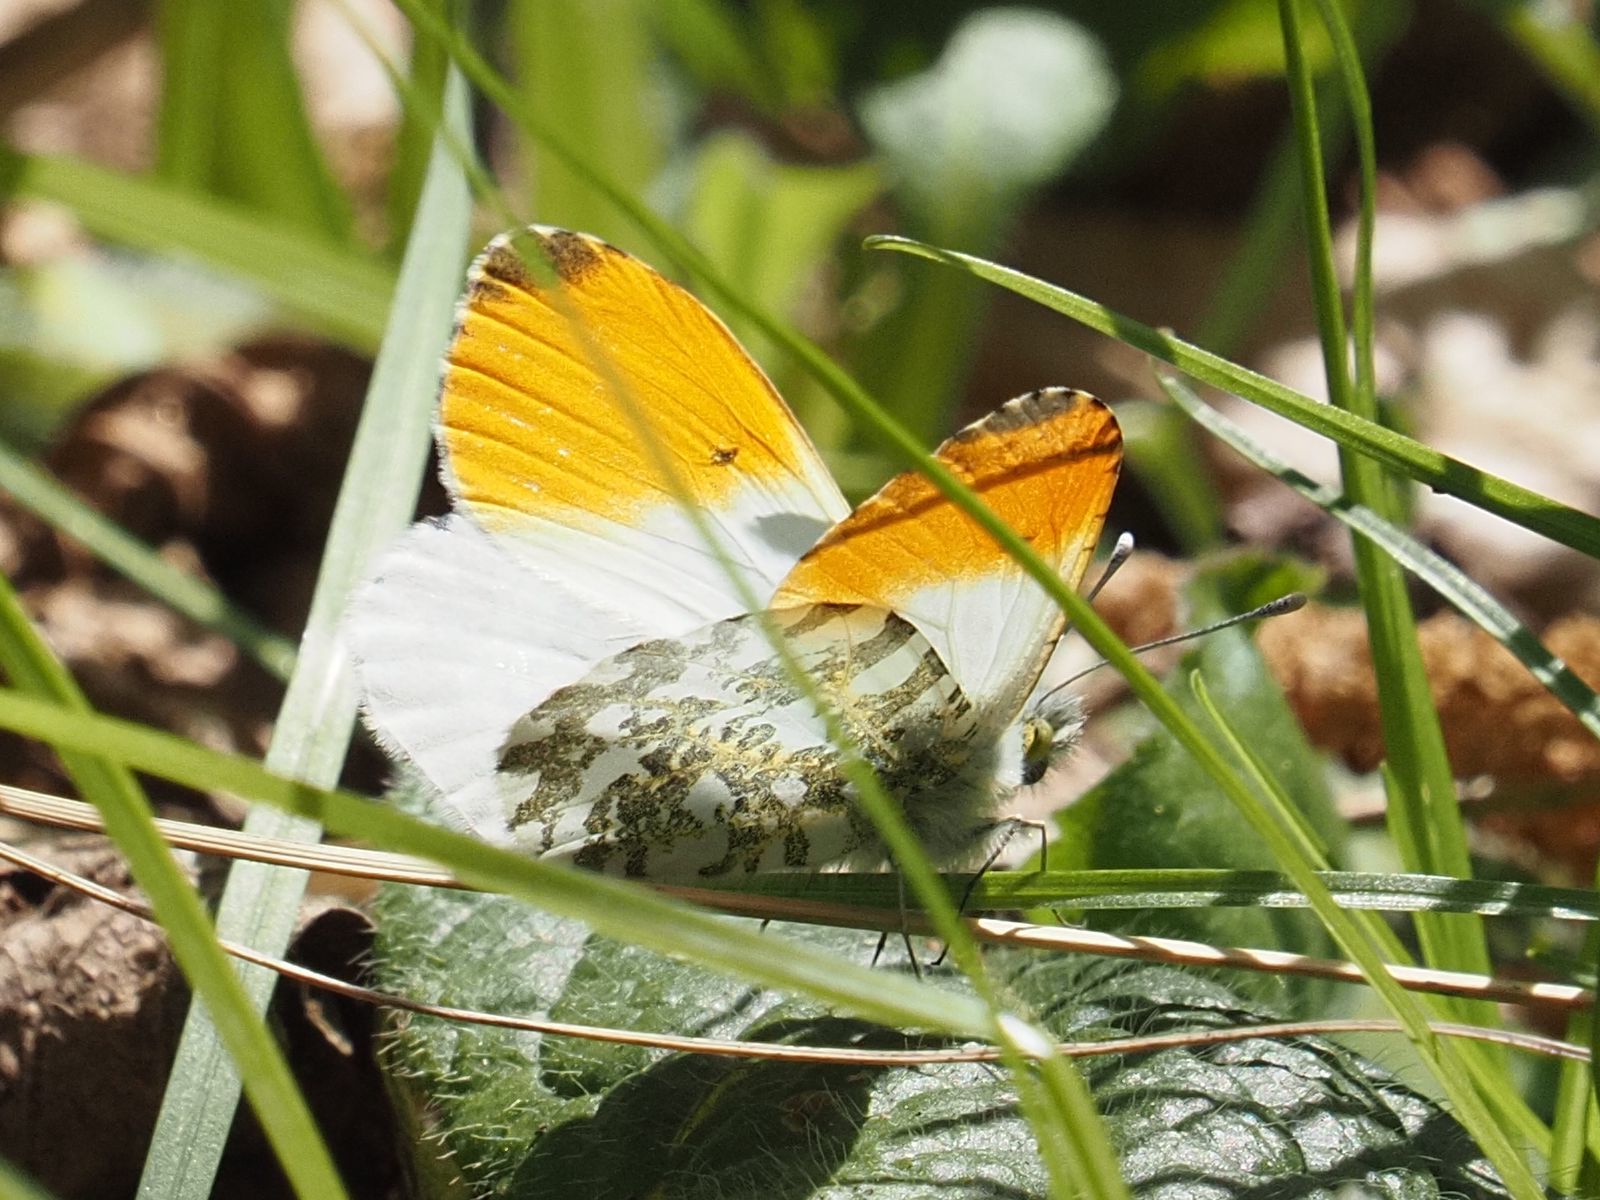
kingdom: Animalia
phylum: Arthropoda
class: Insecta
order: Lepidoptera
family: Pieridae
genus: Anthocharis
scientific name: Anthocharis cardamines
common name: Orange-tip
